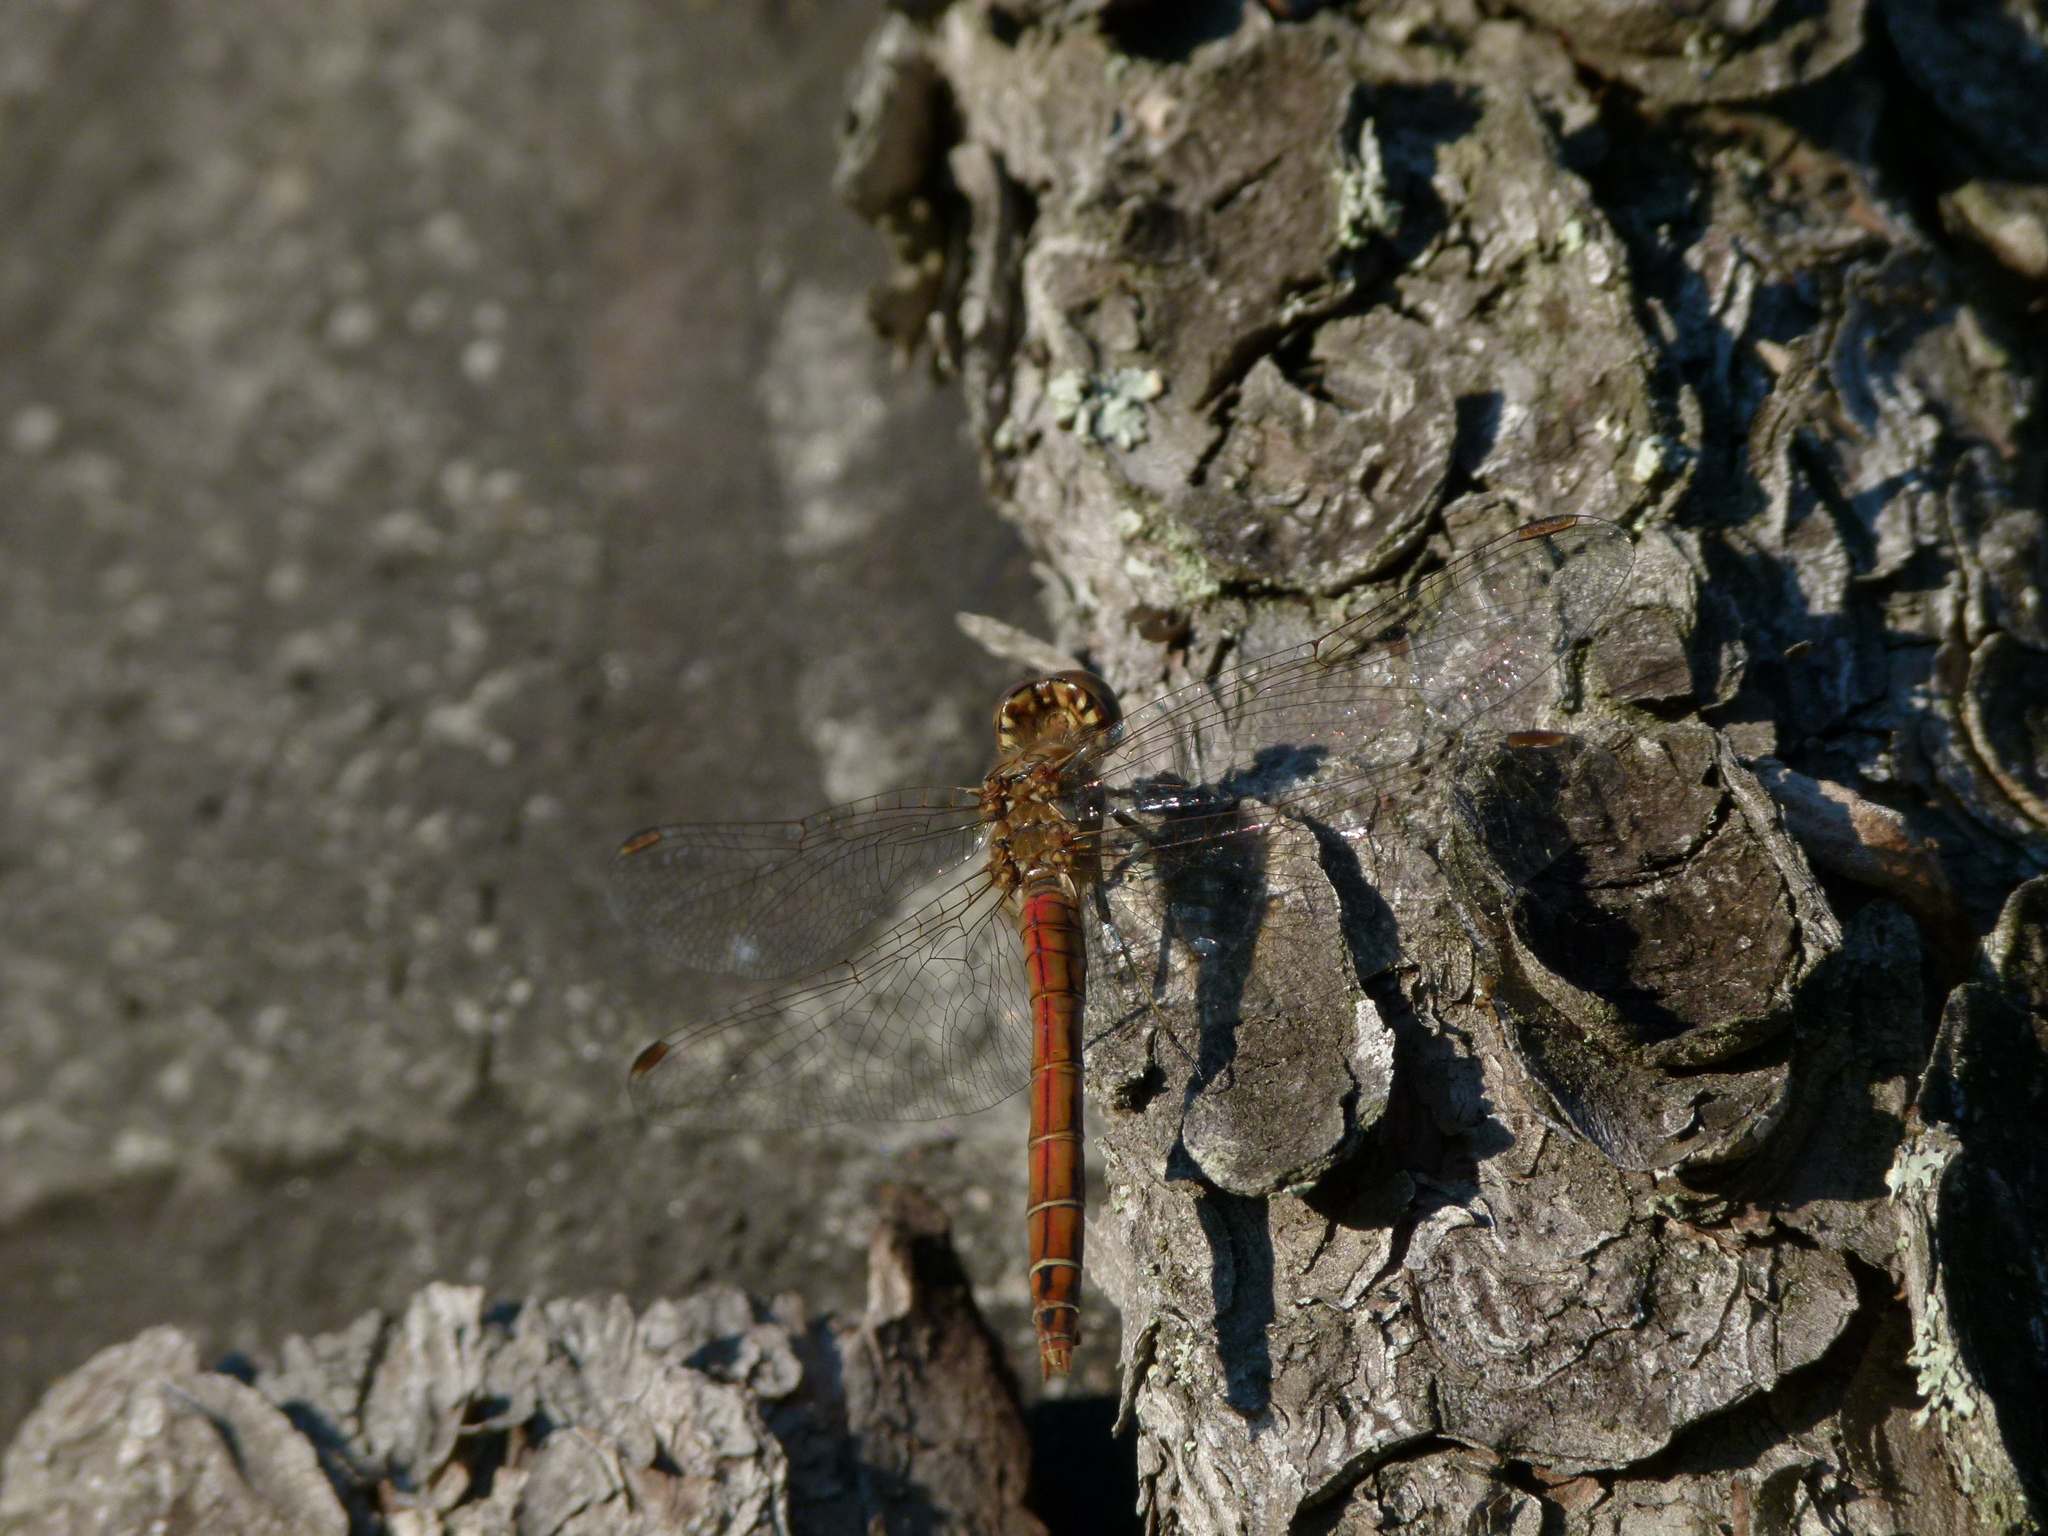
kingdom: Animalia
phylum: Arthropoda
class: Insecta
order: Odonata
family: Libellulidae
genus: Sympetrum
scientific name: Sympetrum vulgatum
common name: Vagrant darter
